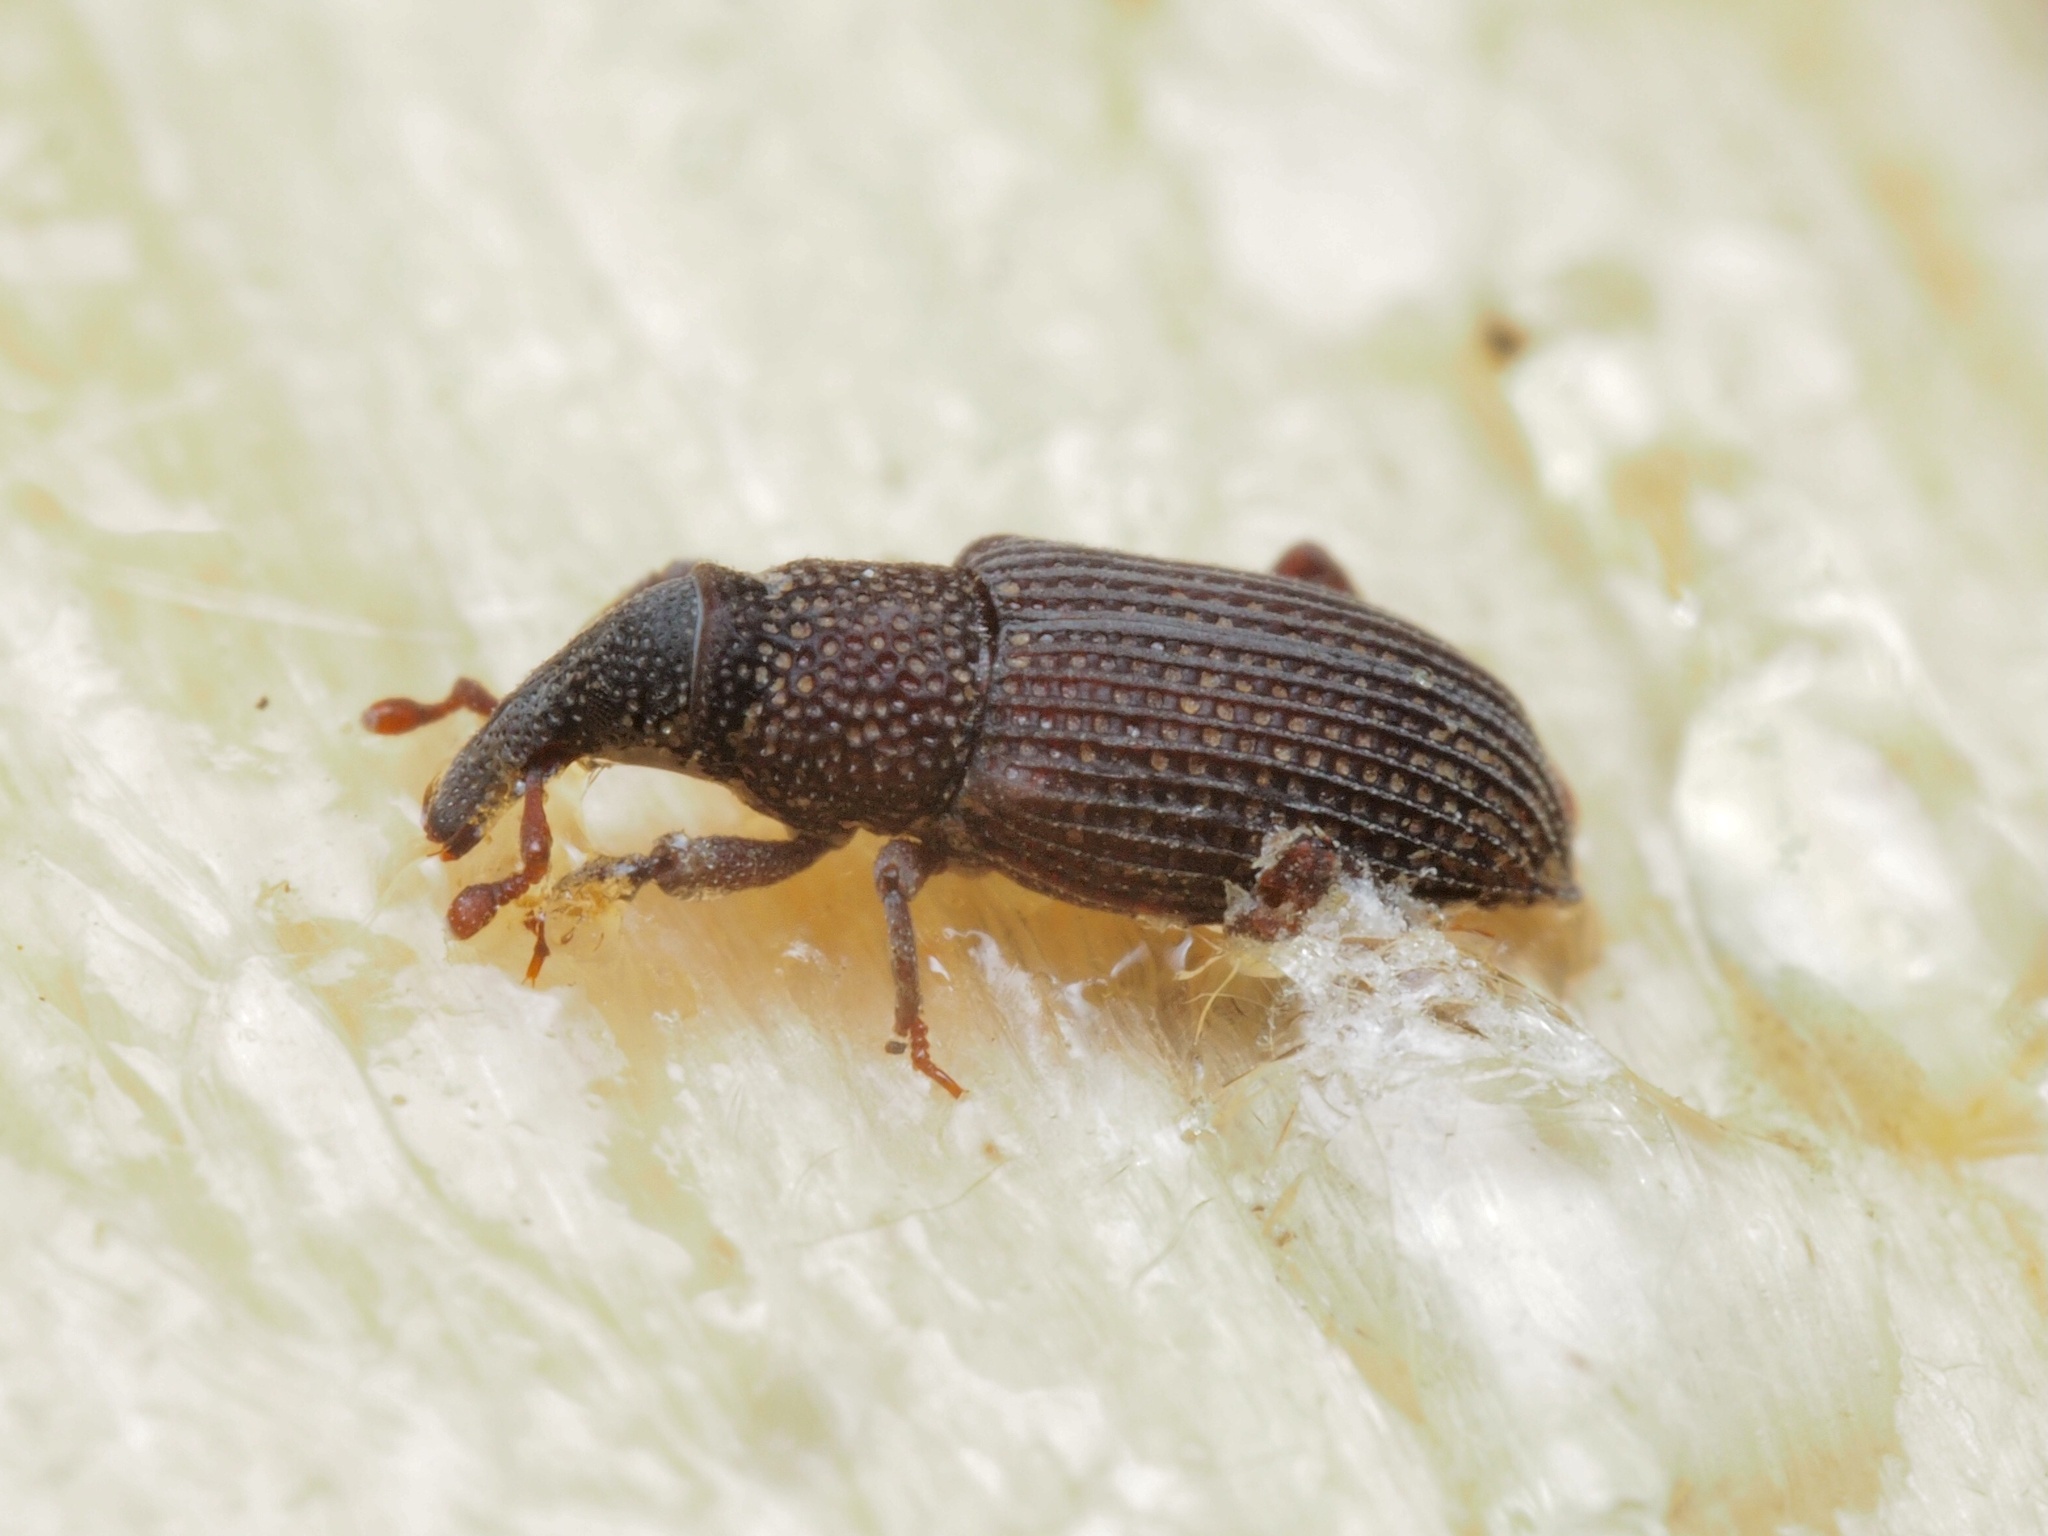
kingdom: Animalia
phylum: Arthropoda
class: Insecta
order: Coleoptera
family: Dryophthoridae
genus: Dryophthorus
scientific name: Dryophthorus corticalis
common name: Wood-boring weevil
